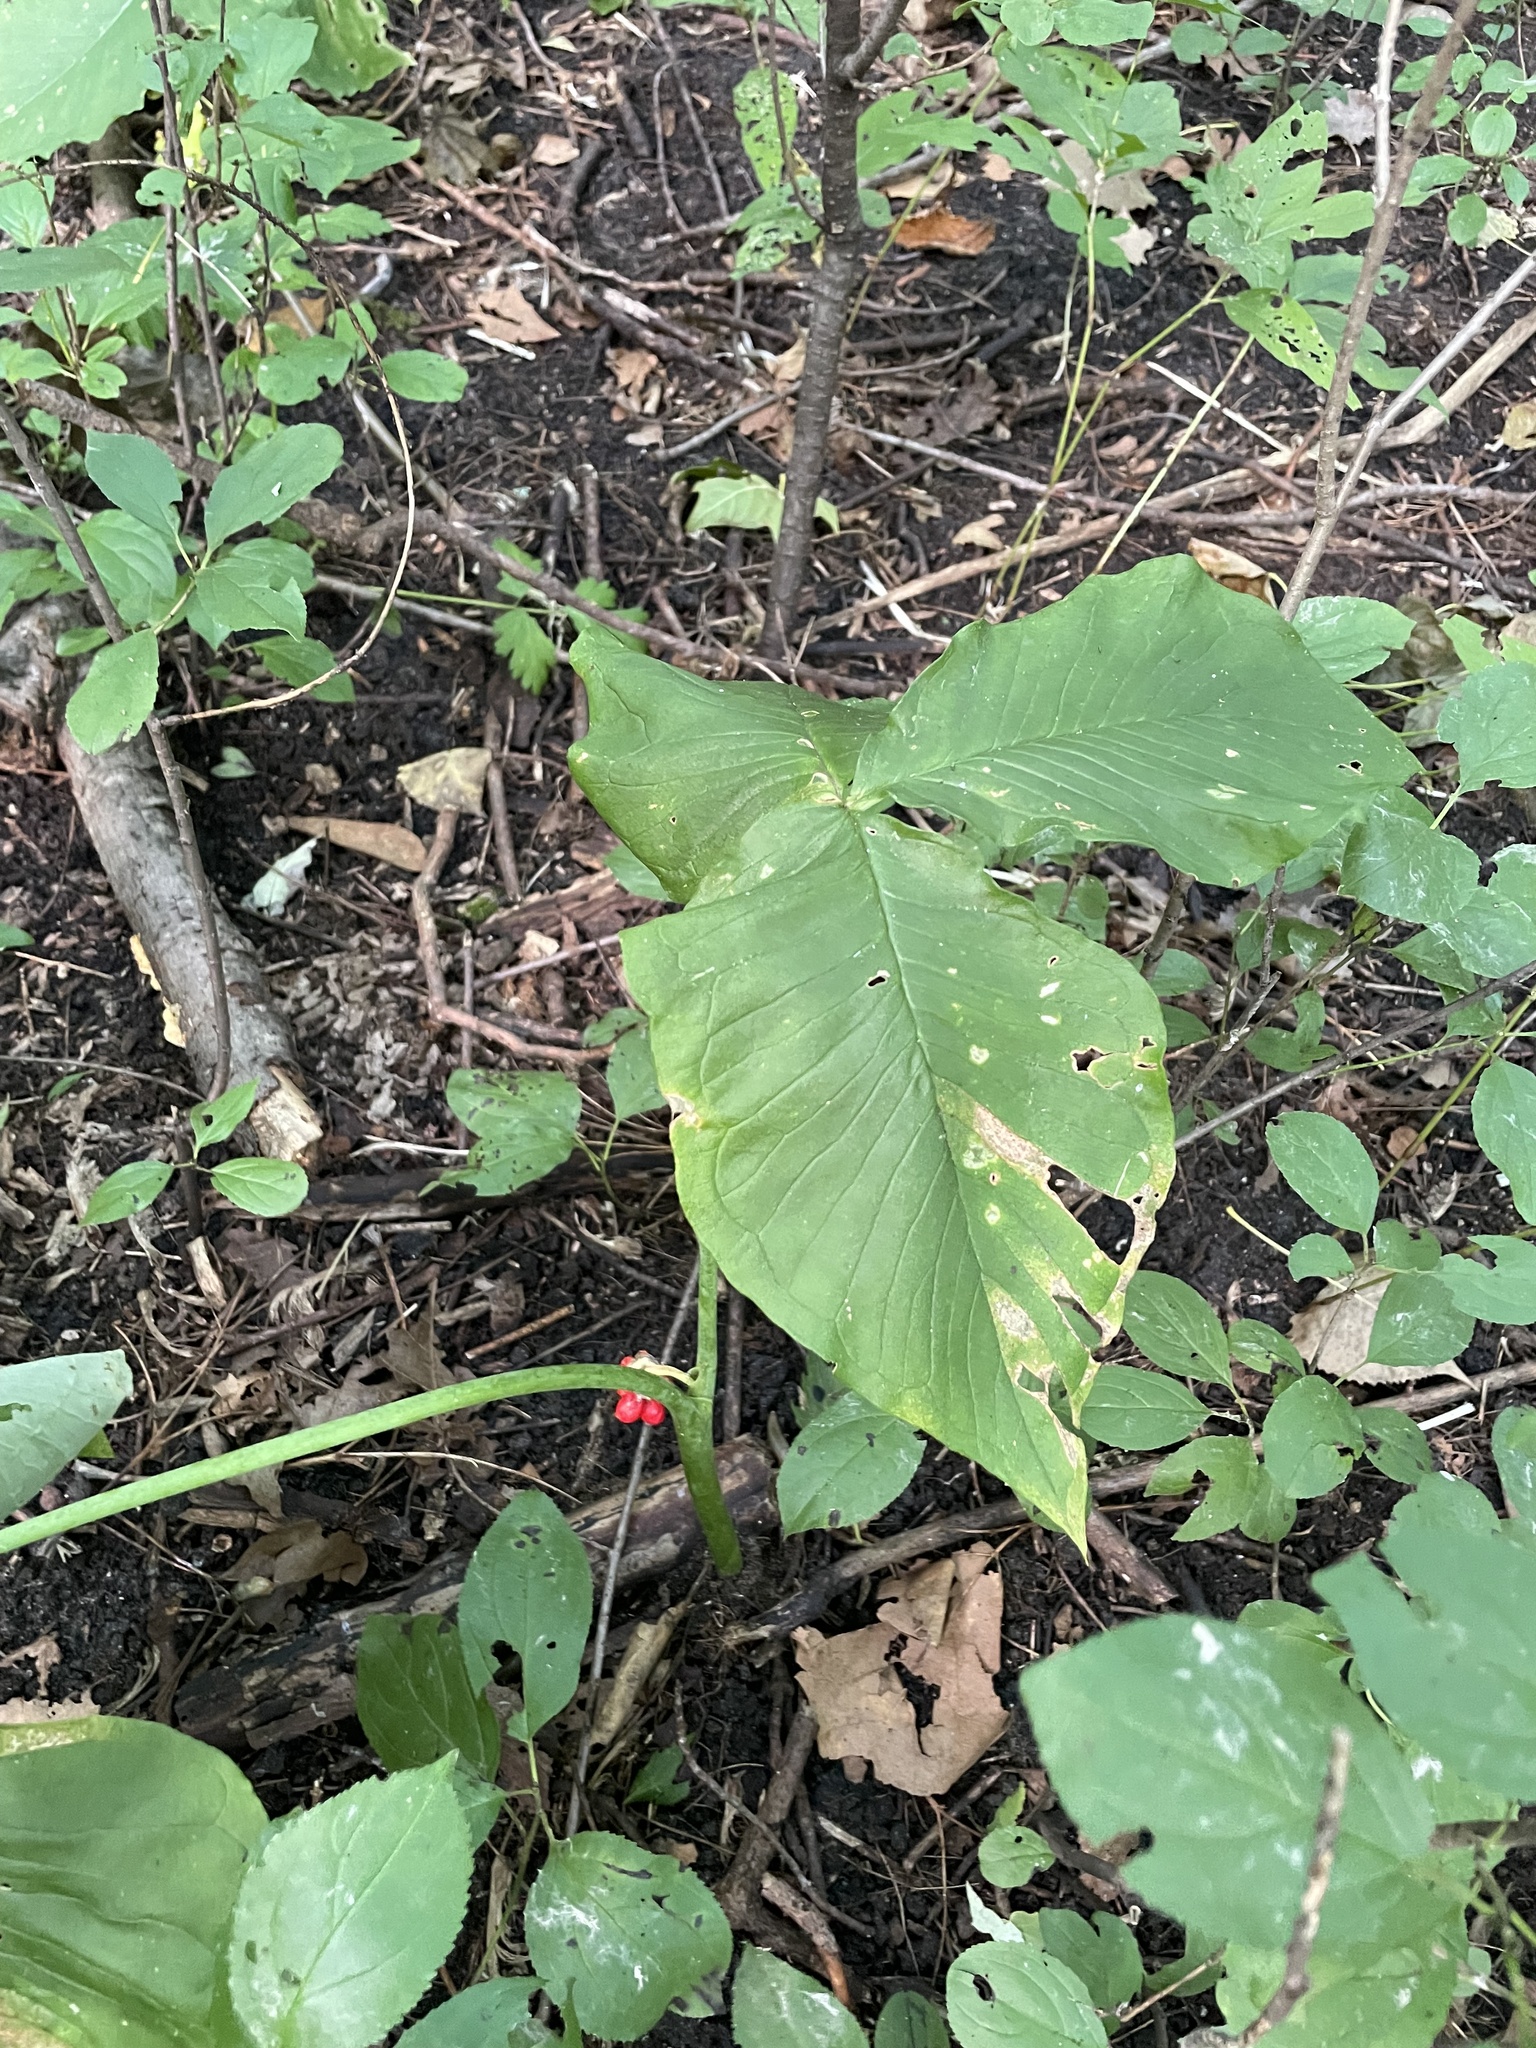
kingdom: Plantae
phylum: Tracheophyta
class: Liliopsida
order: Alismatales
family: Araceae
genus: Arisaema
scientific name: Arisaema triphyllum
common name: Jack-in-the-pulpit
